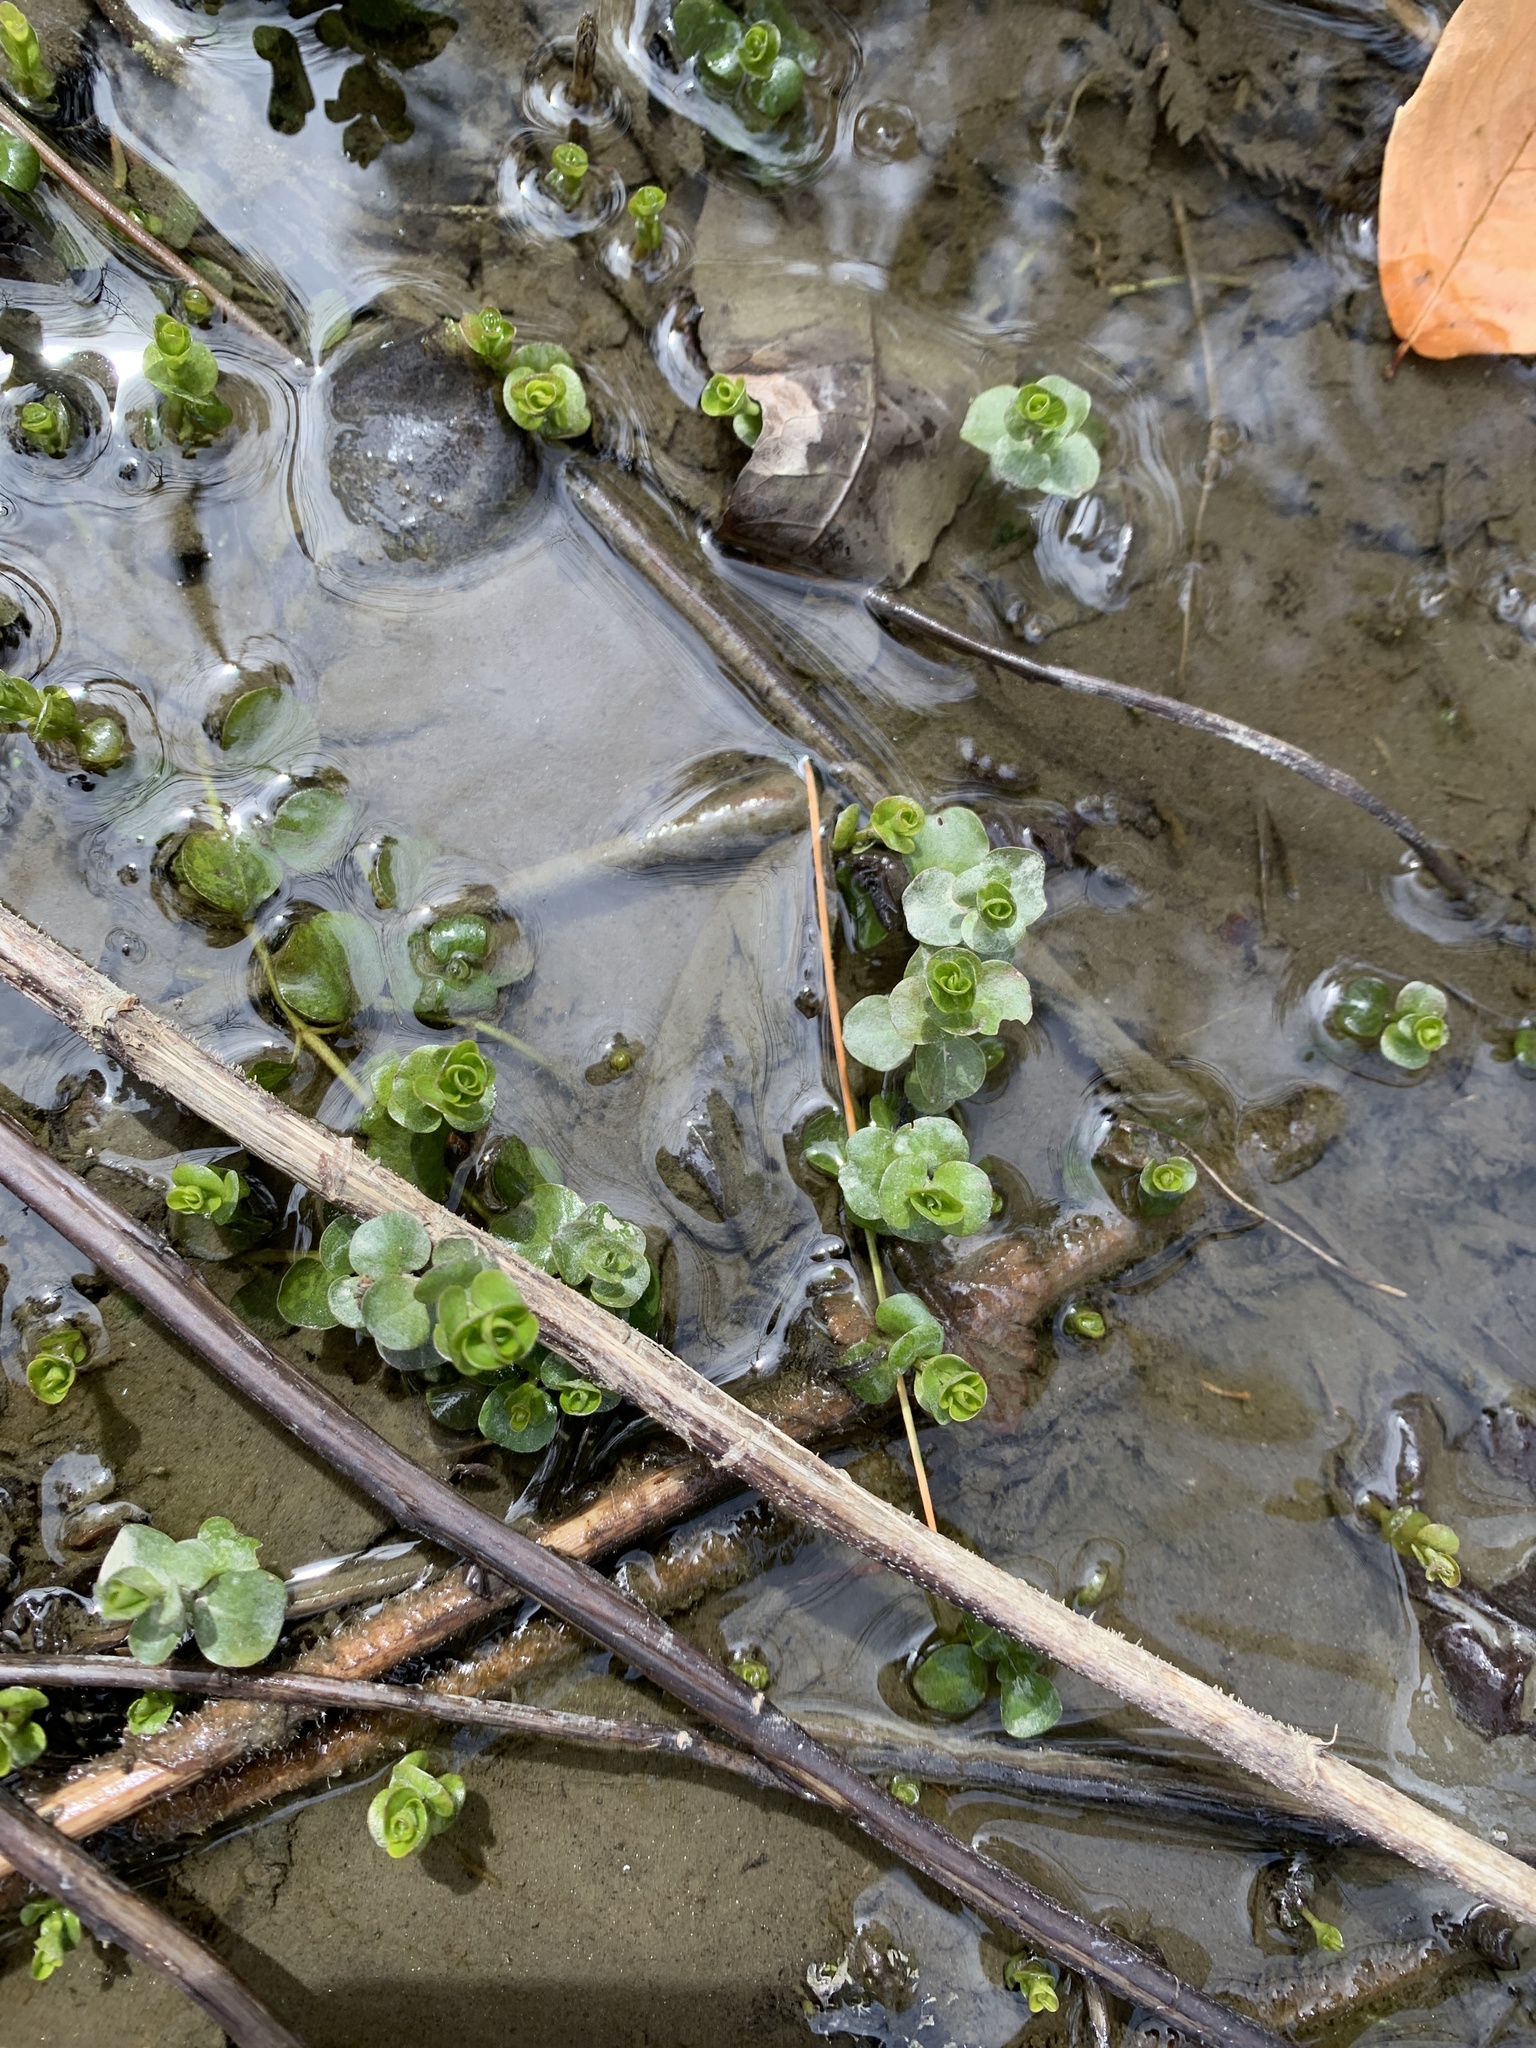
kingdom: Plantae
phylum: Tracheophyta
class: Magnoliopsida
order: Ericales
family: Primulaceae
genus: Lysimachia
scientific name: Lysimachia nummularia
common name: Moneywort
